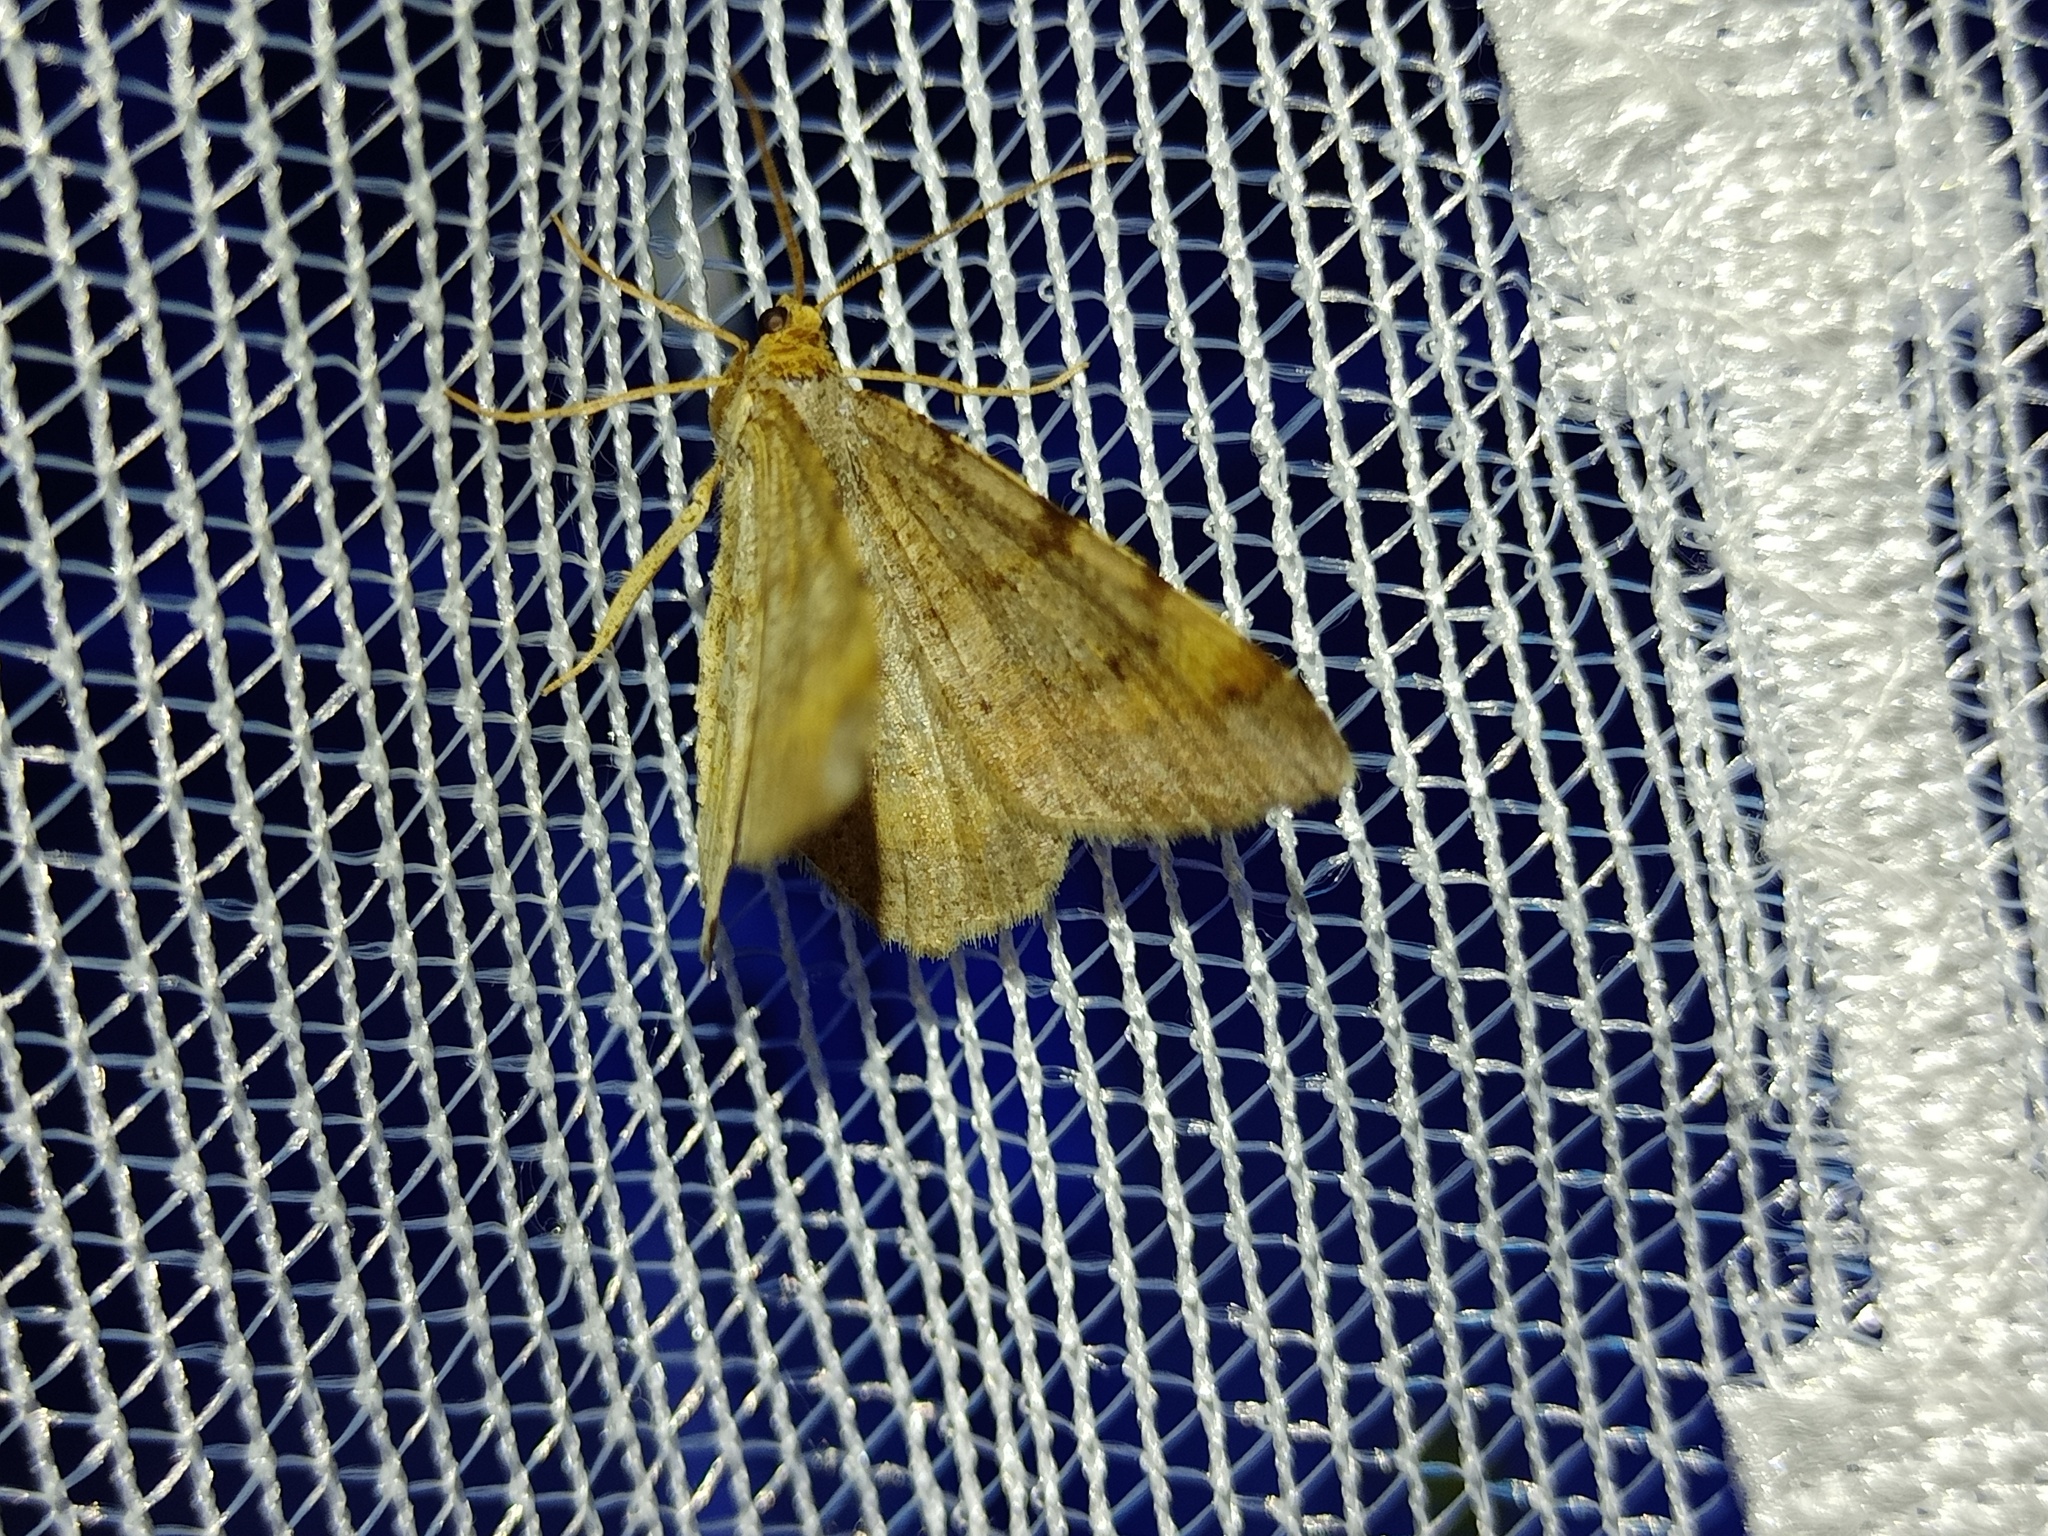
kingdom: Animalia
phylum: Arthropoda
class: Insecta
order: Lepidoptera
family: Geometridae
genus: Macaria
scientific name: Macaria liturata
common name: Tawny-barred angle
